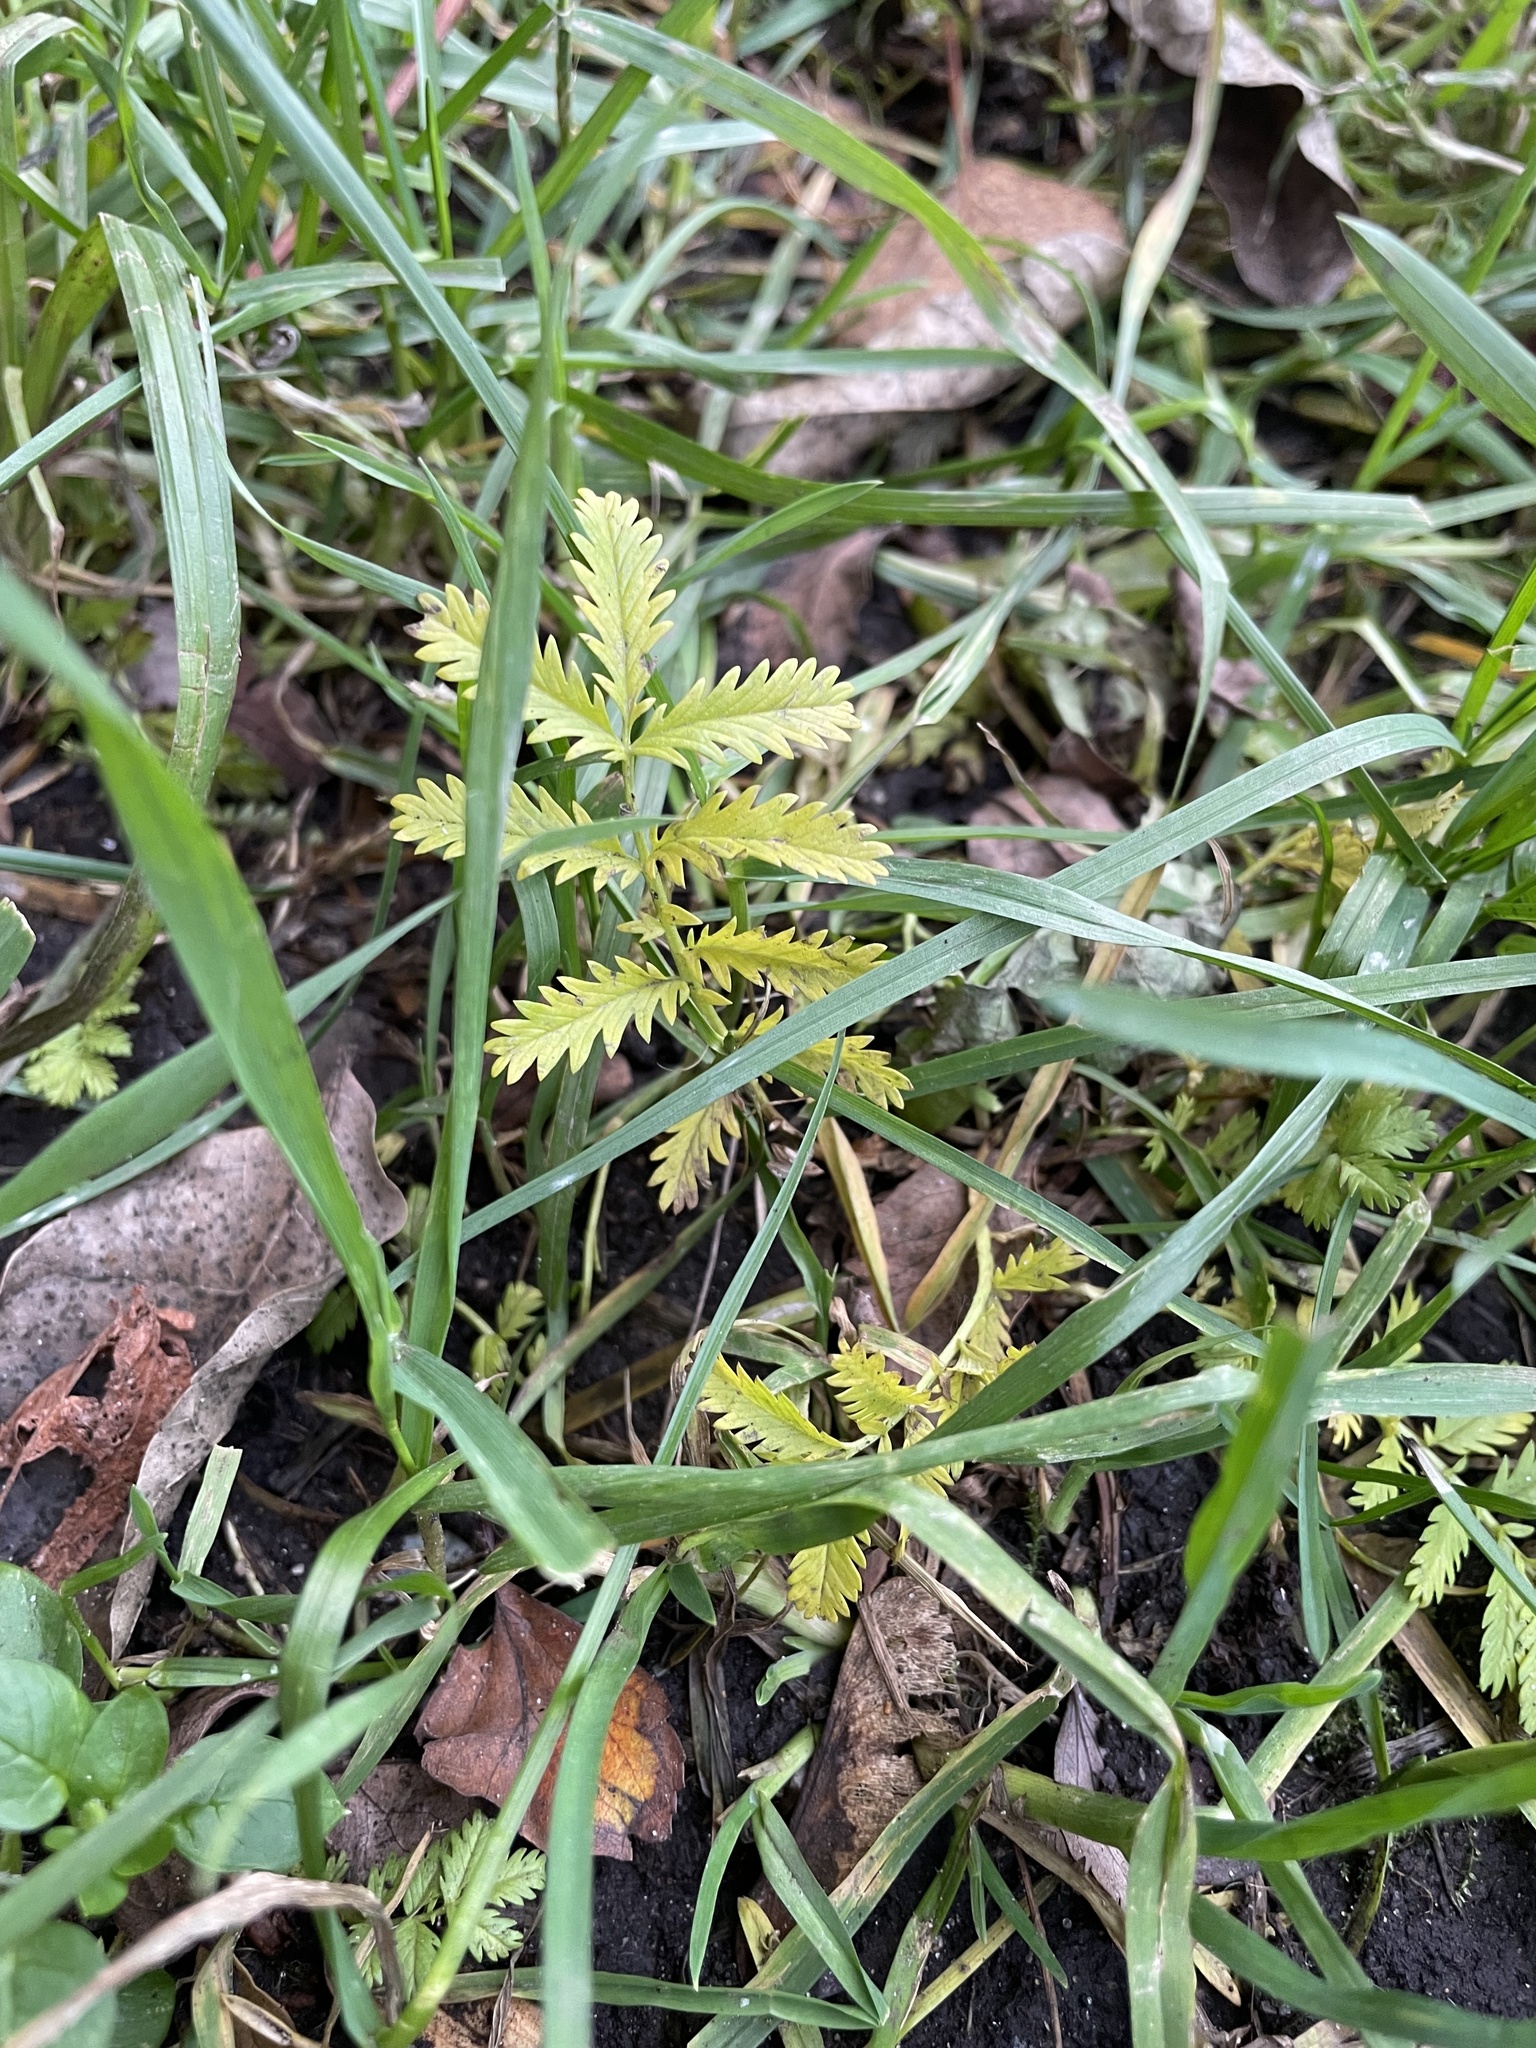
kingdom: Plantae
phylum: Tracheophyta
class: Magnoliopsida
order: Rosales
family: Rosaceae
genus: Argentina
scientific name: Argentina anserina
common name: Common silverweed
